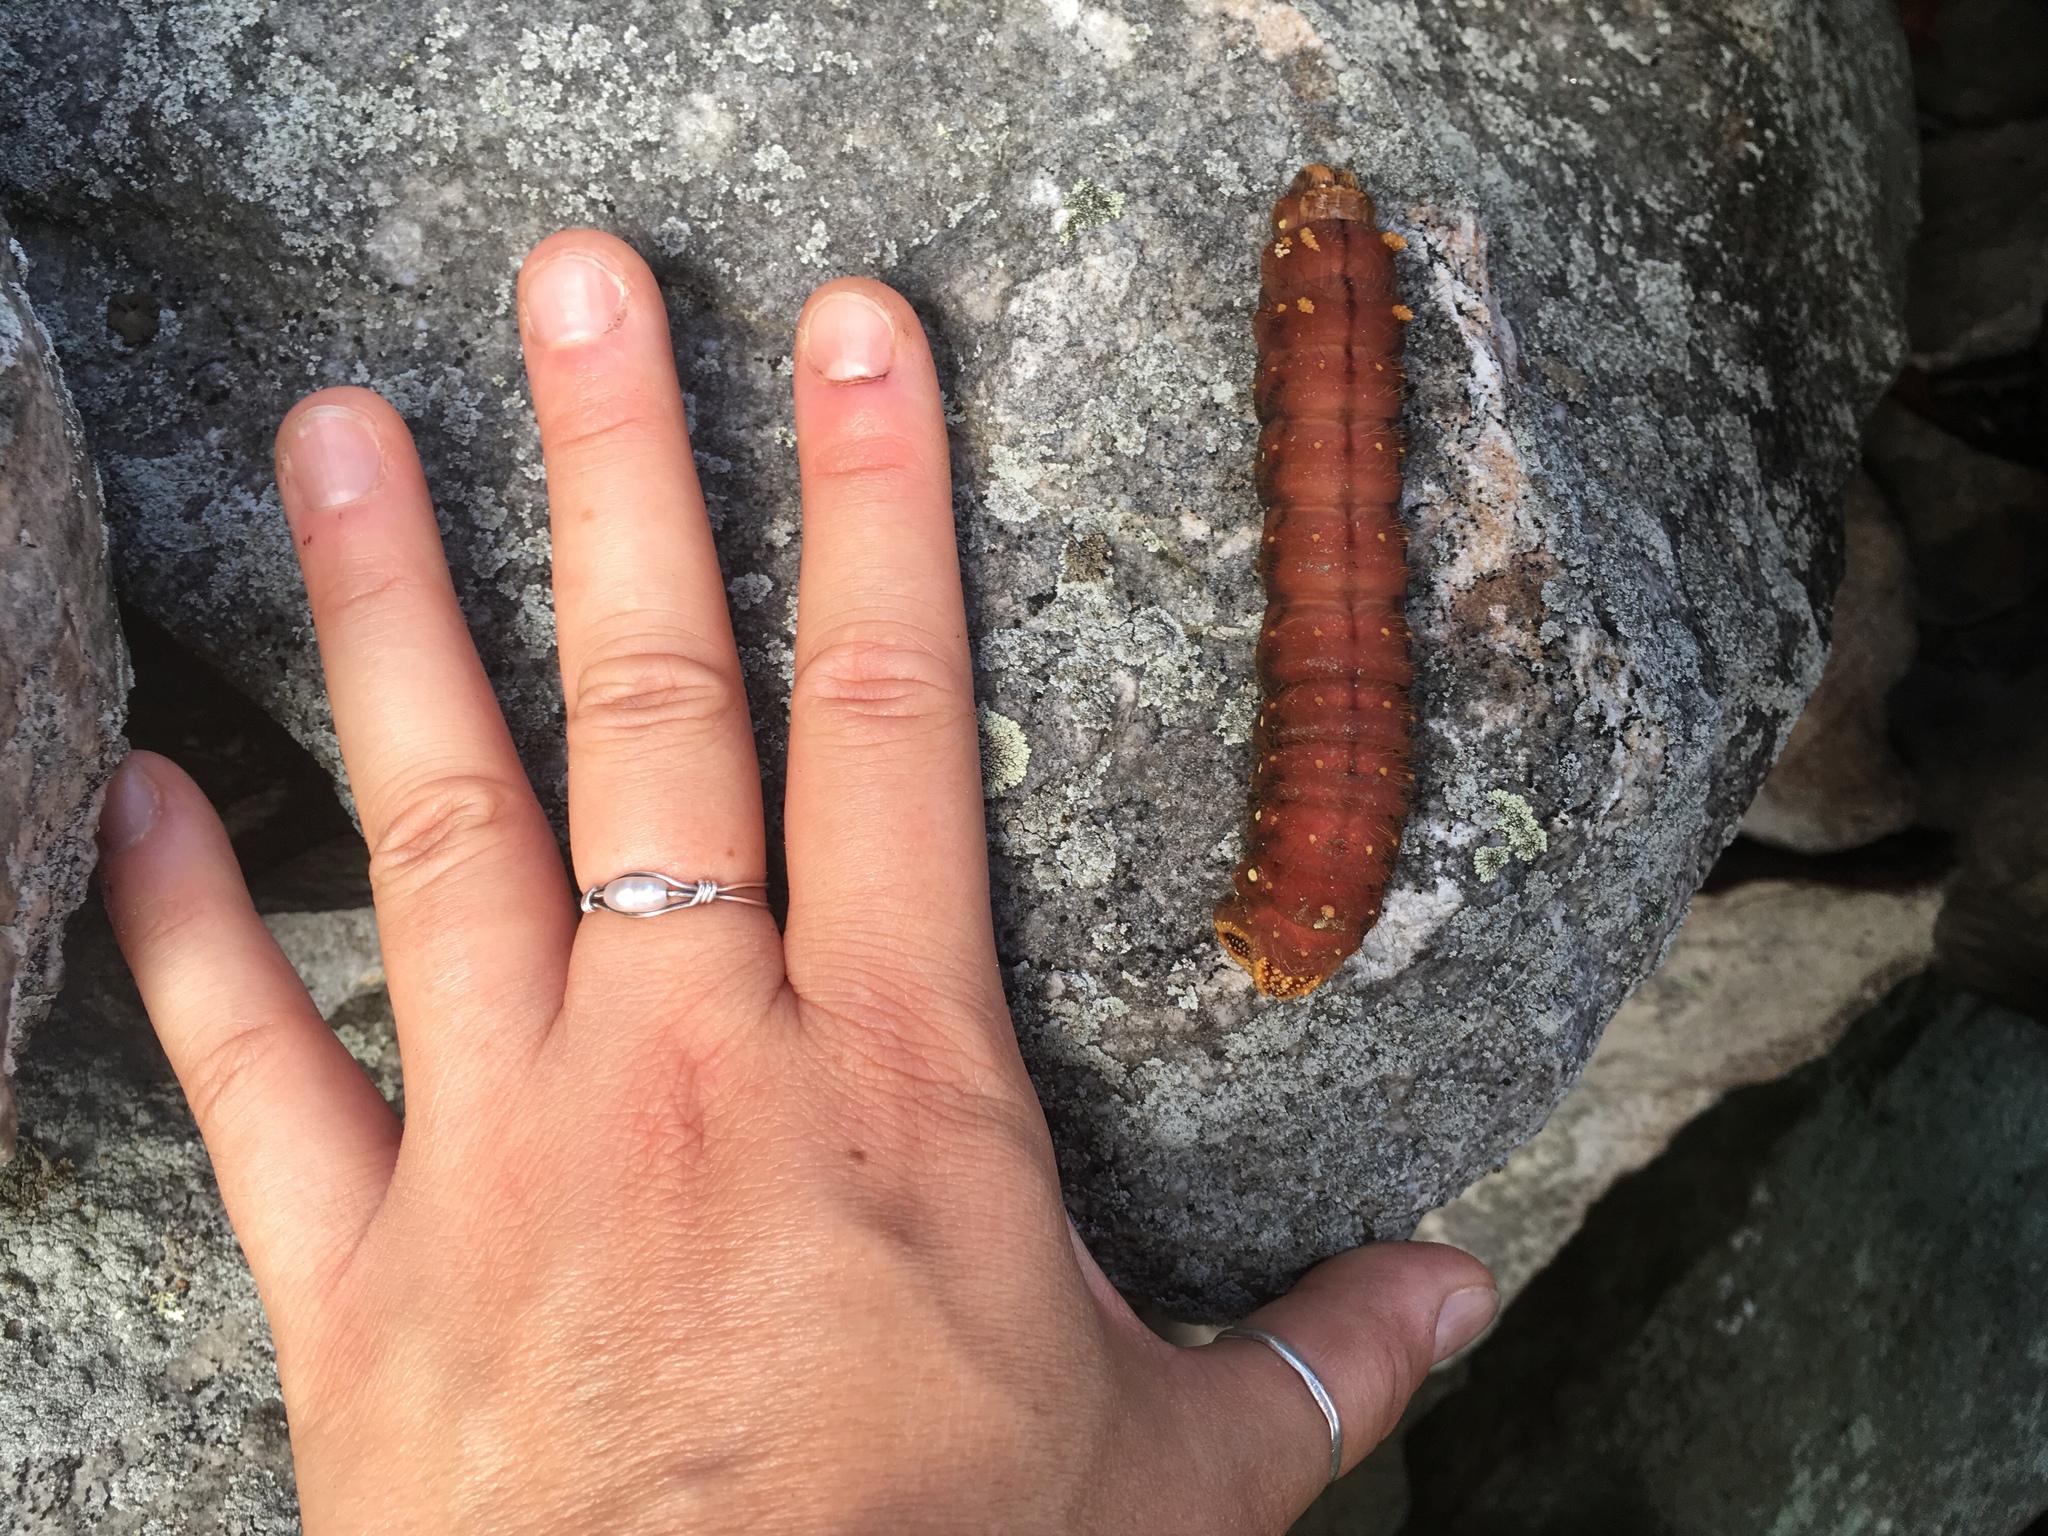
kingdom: Animalia
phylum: Arthropoda
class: Insecta
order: Lepidoptera
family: Saturniidae
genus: Eacles
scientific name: Eacles imperialis
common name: Imperial moth
